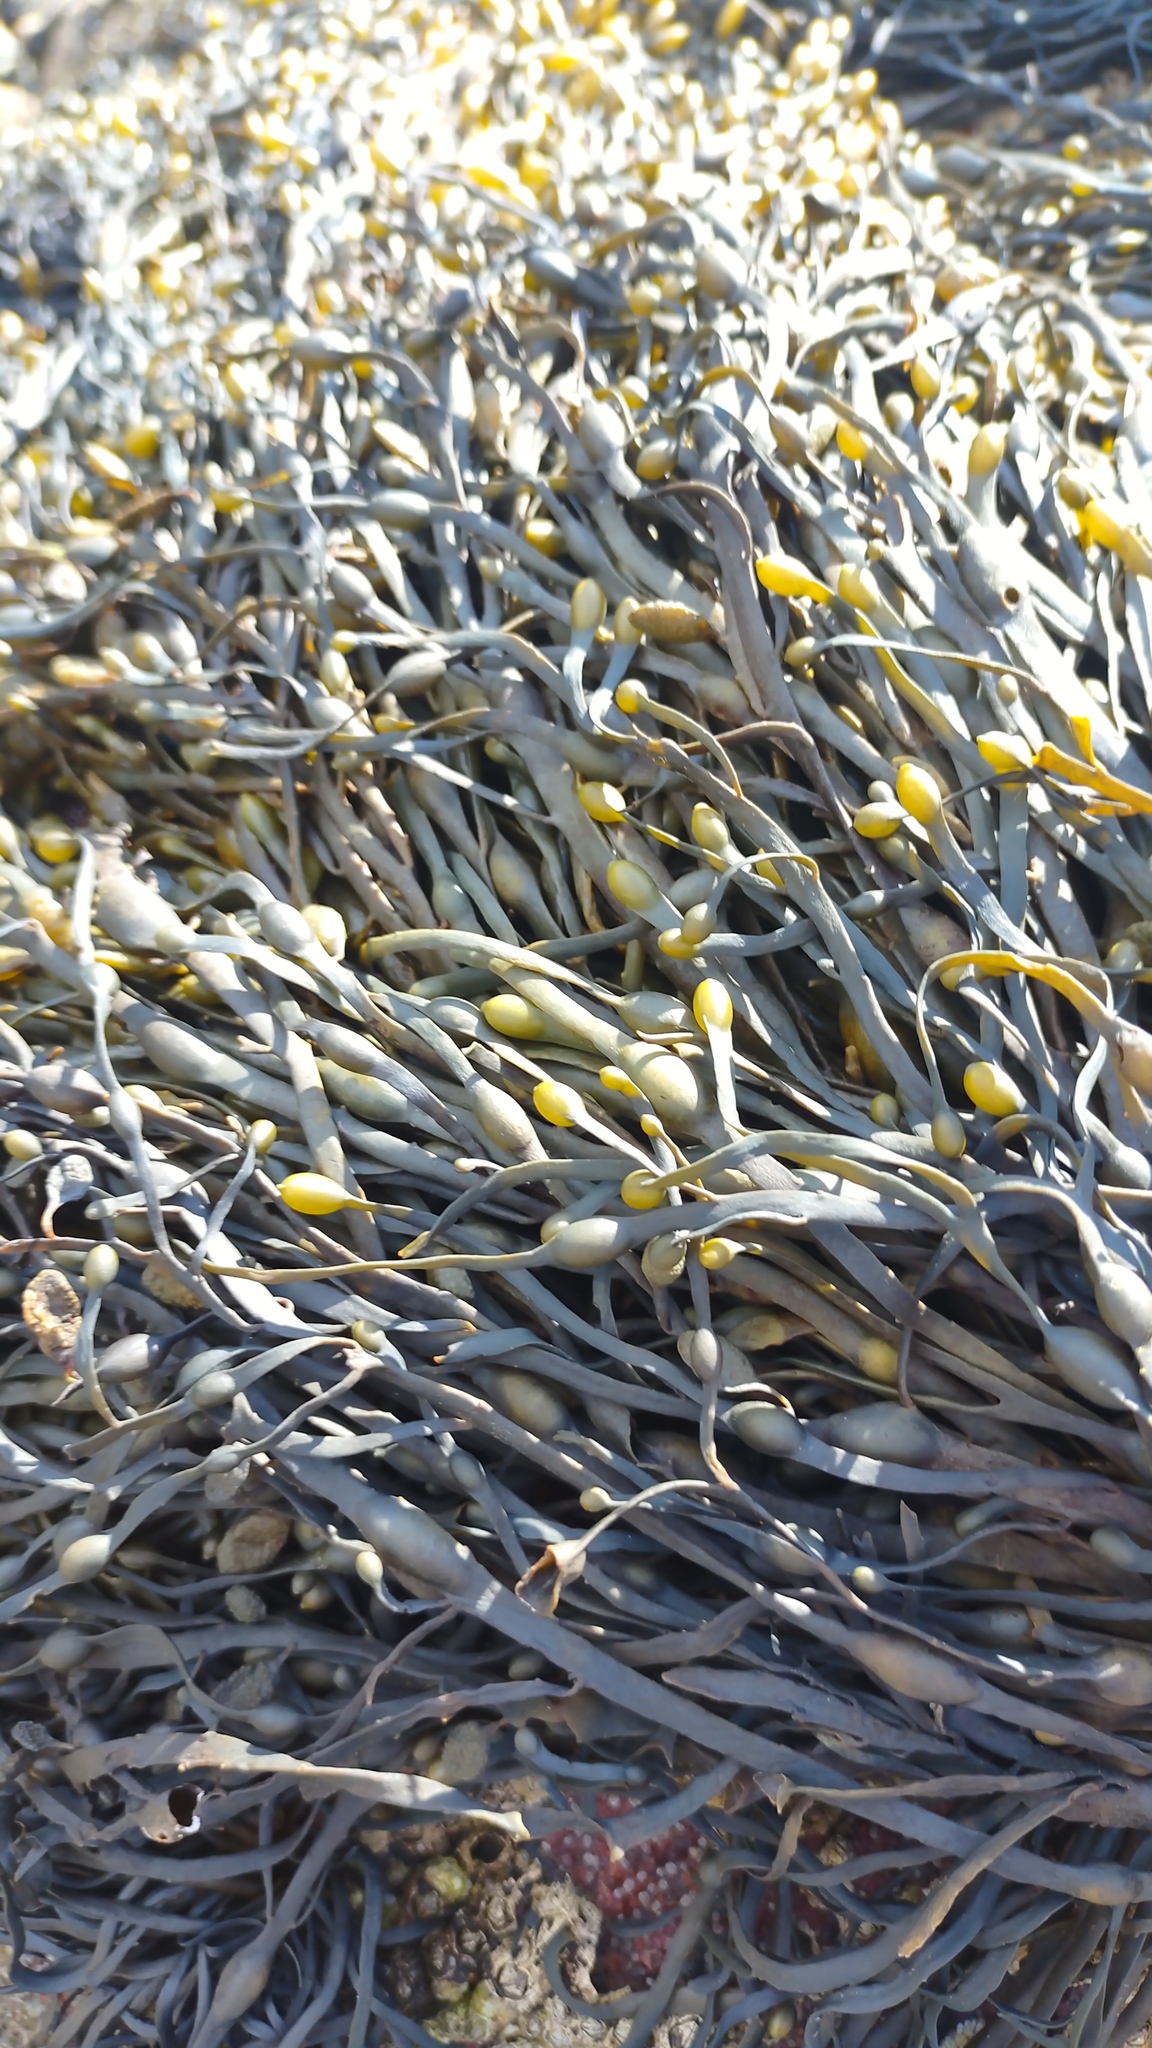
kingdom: Chromista
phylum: Ochrophyta
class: Phaeophyceae
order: Fucales
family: Fucaceae
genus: Ascophyllum
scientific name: Ascophyllum nodosum
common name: Knotted wrack
